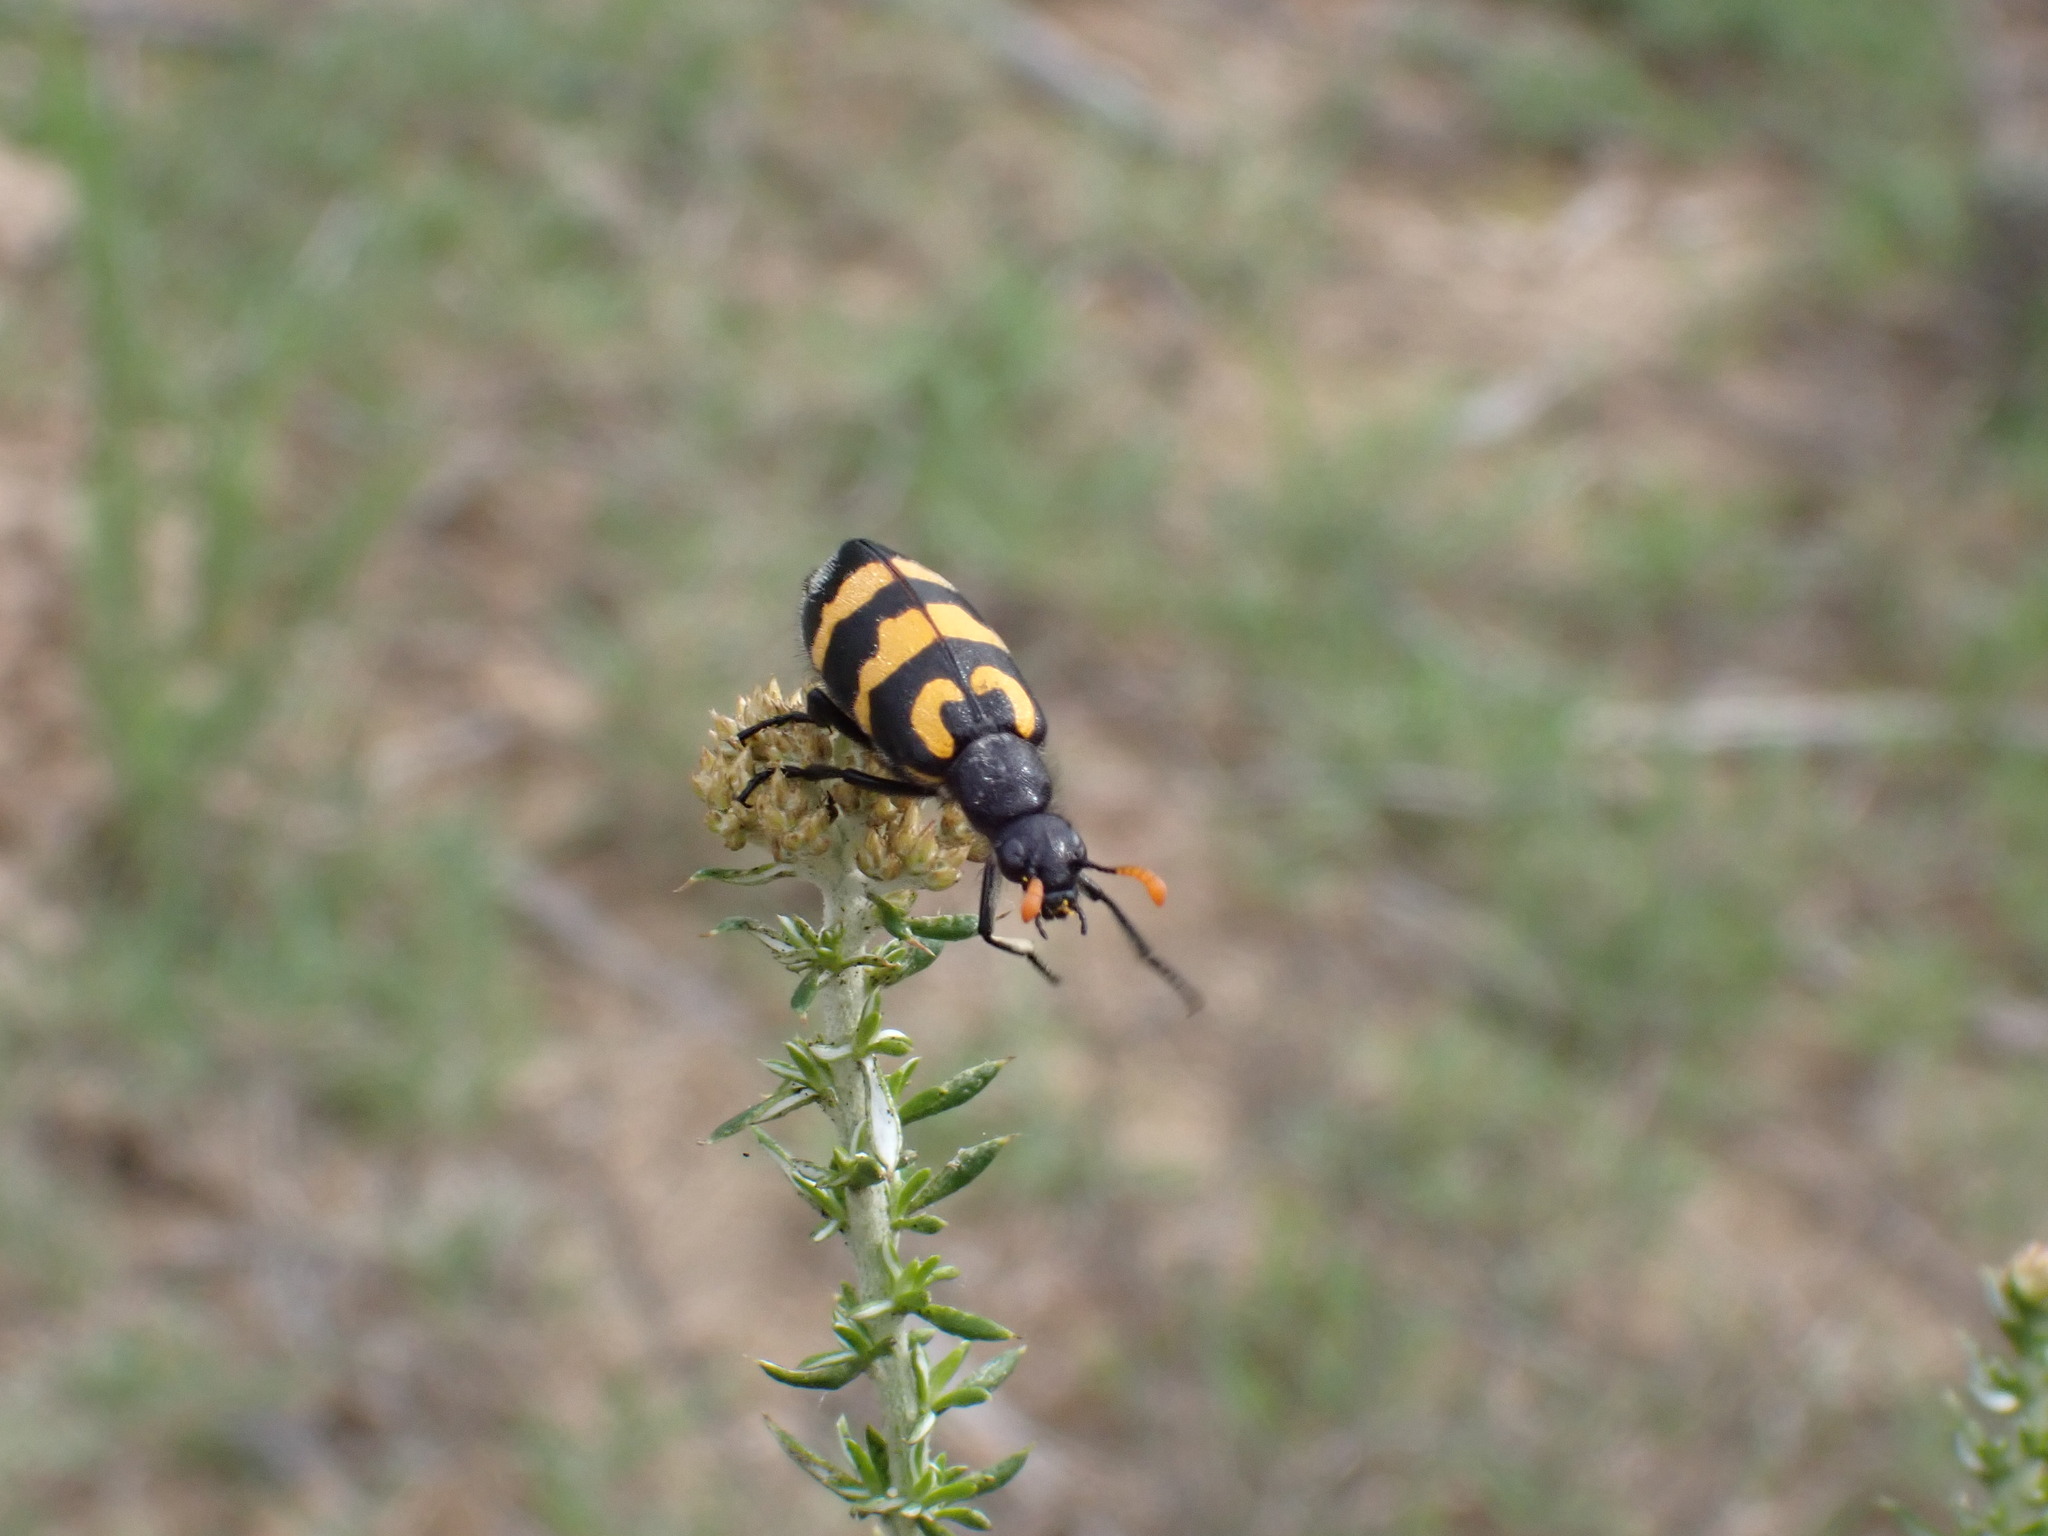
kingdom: Animalia
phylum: Arthropoda
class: Insecta
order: Coleoptera
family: Meloidae
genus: Meloe
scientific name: Meloe lunata
